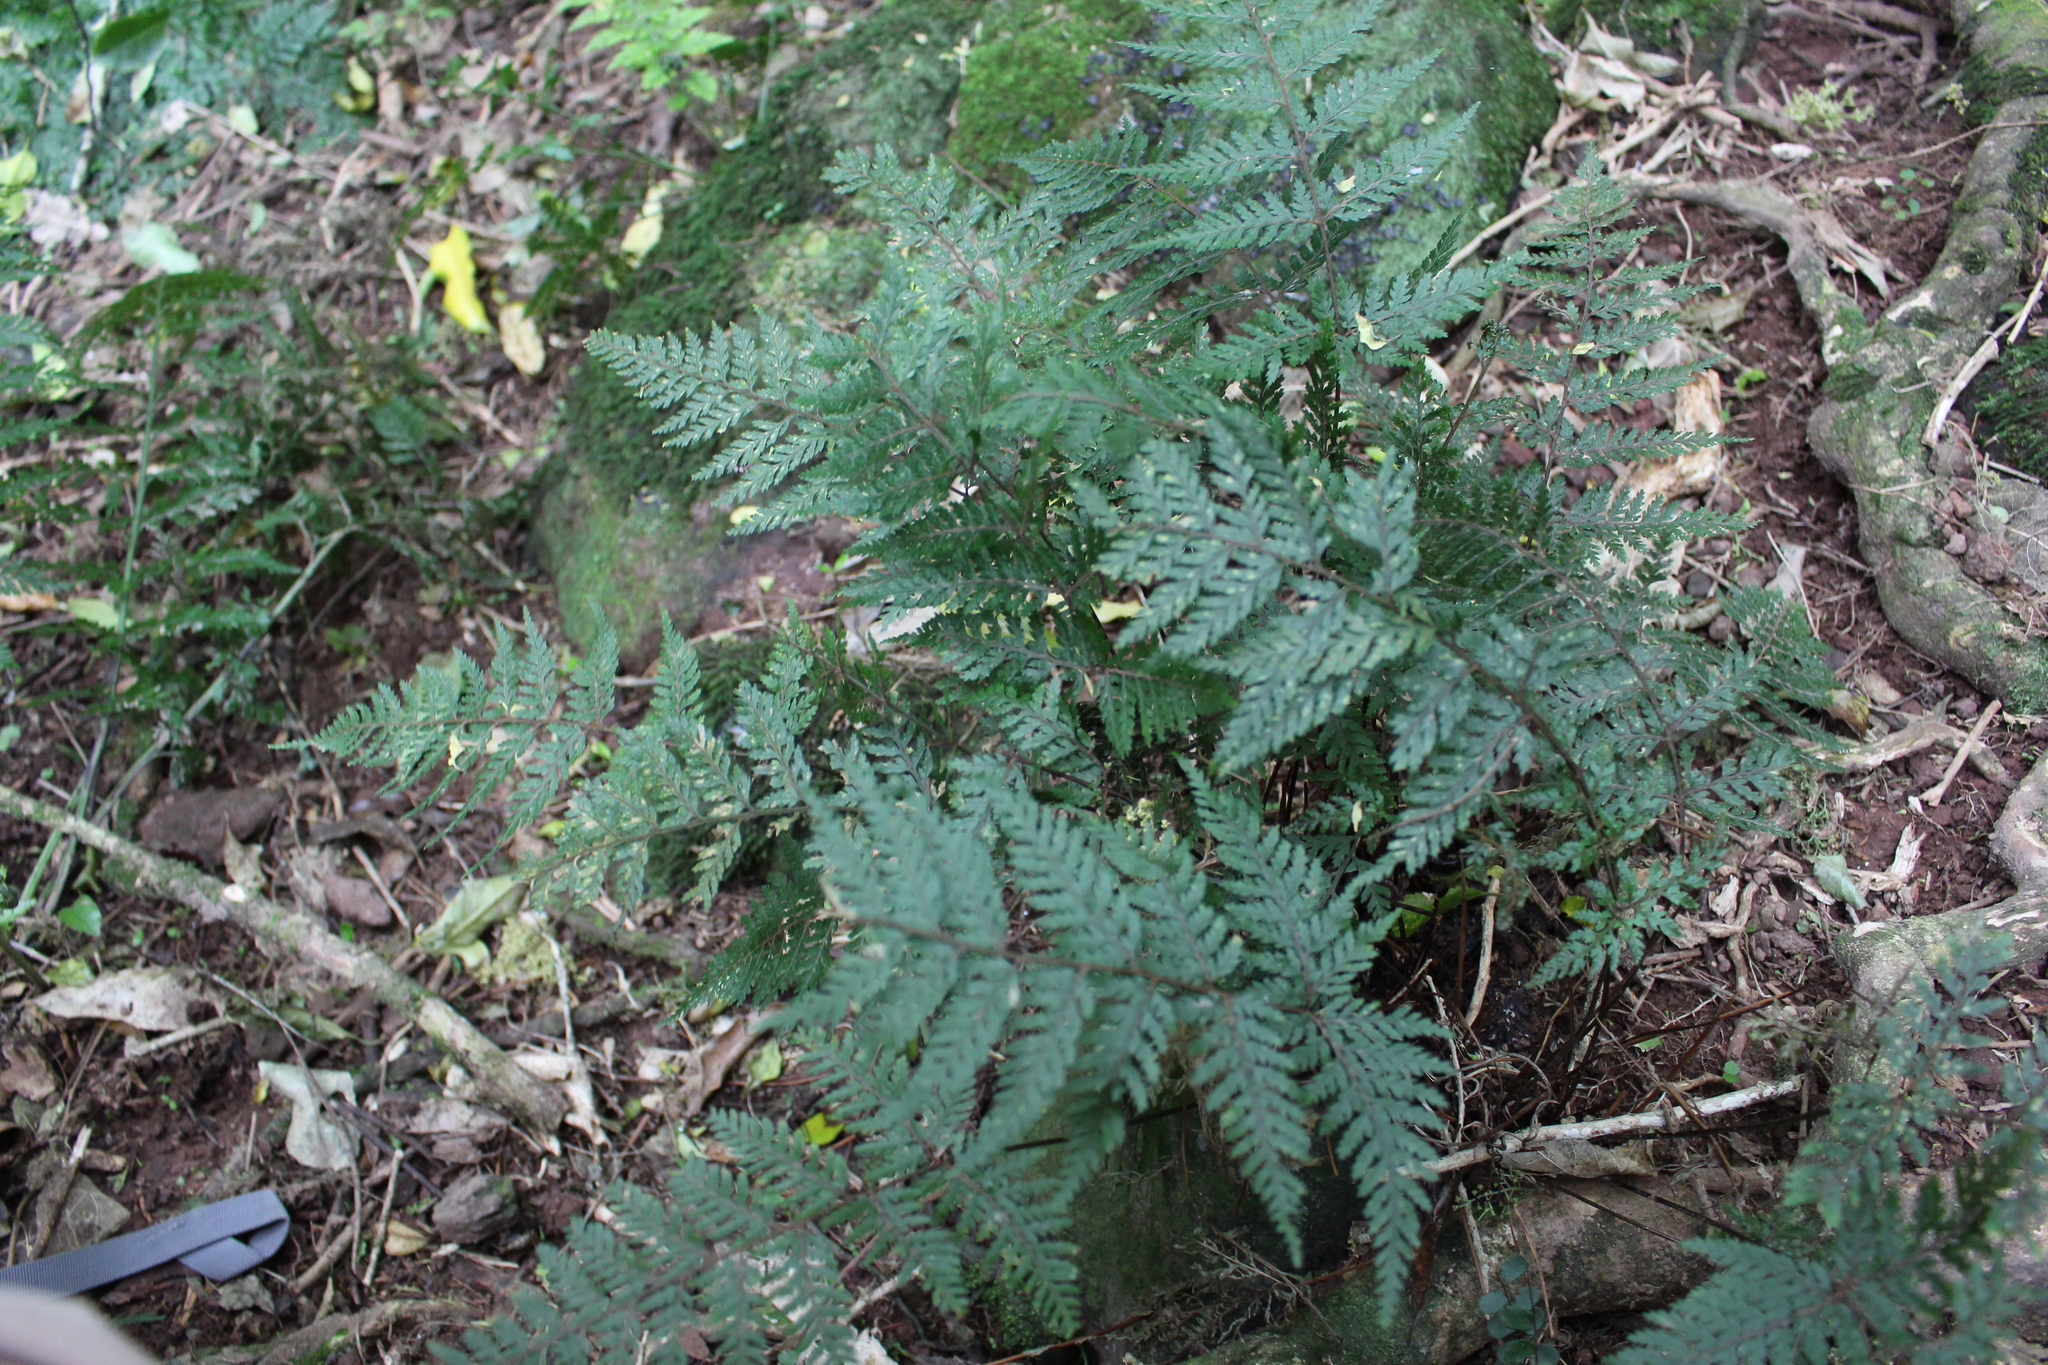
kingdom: Plantae
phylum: Tracheophyta
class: Polypodiopsida
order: Polypodiales
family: Dryopteridaceae
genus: Parapolystichum
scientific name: Parapolystichum glabellum
